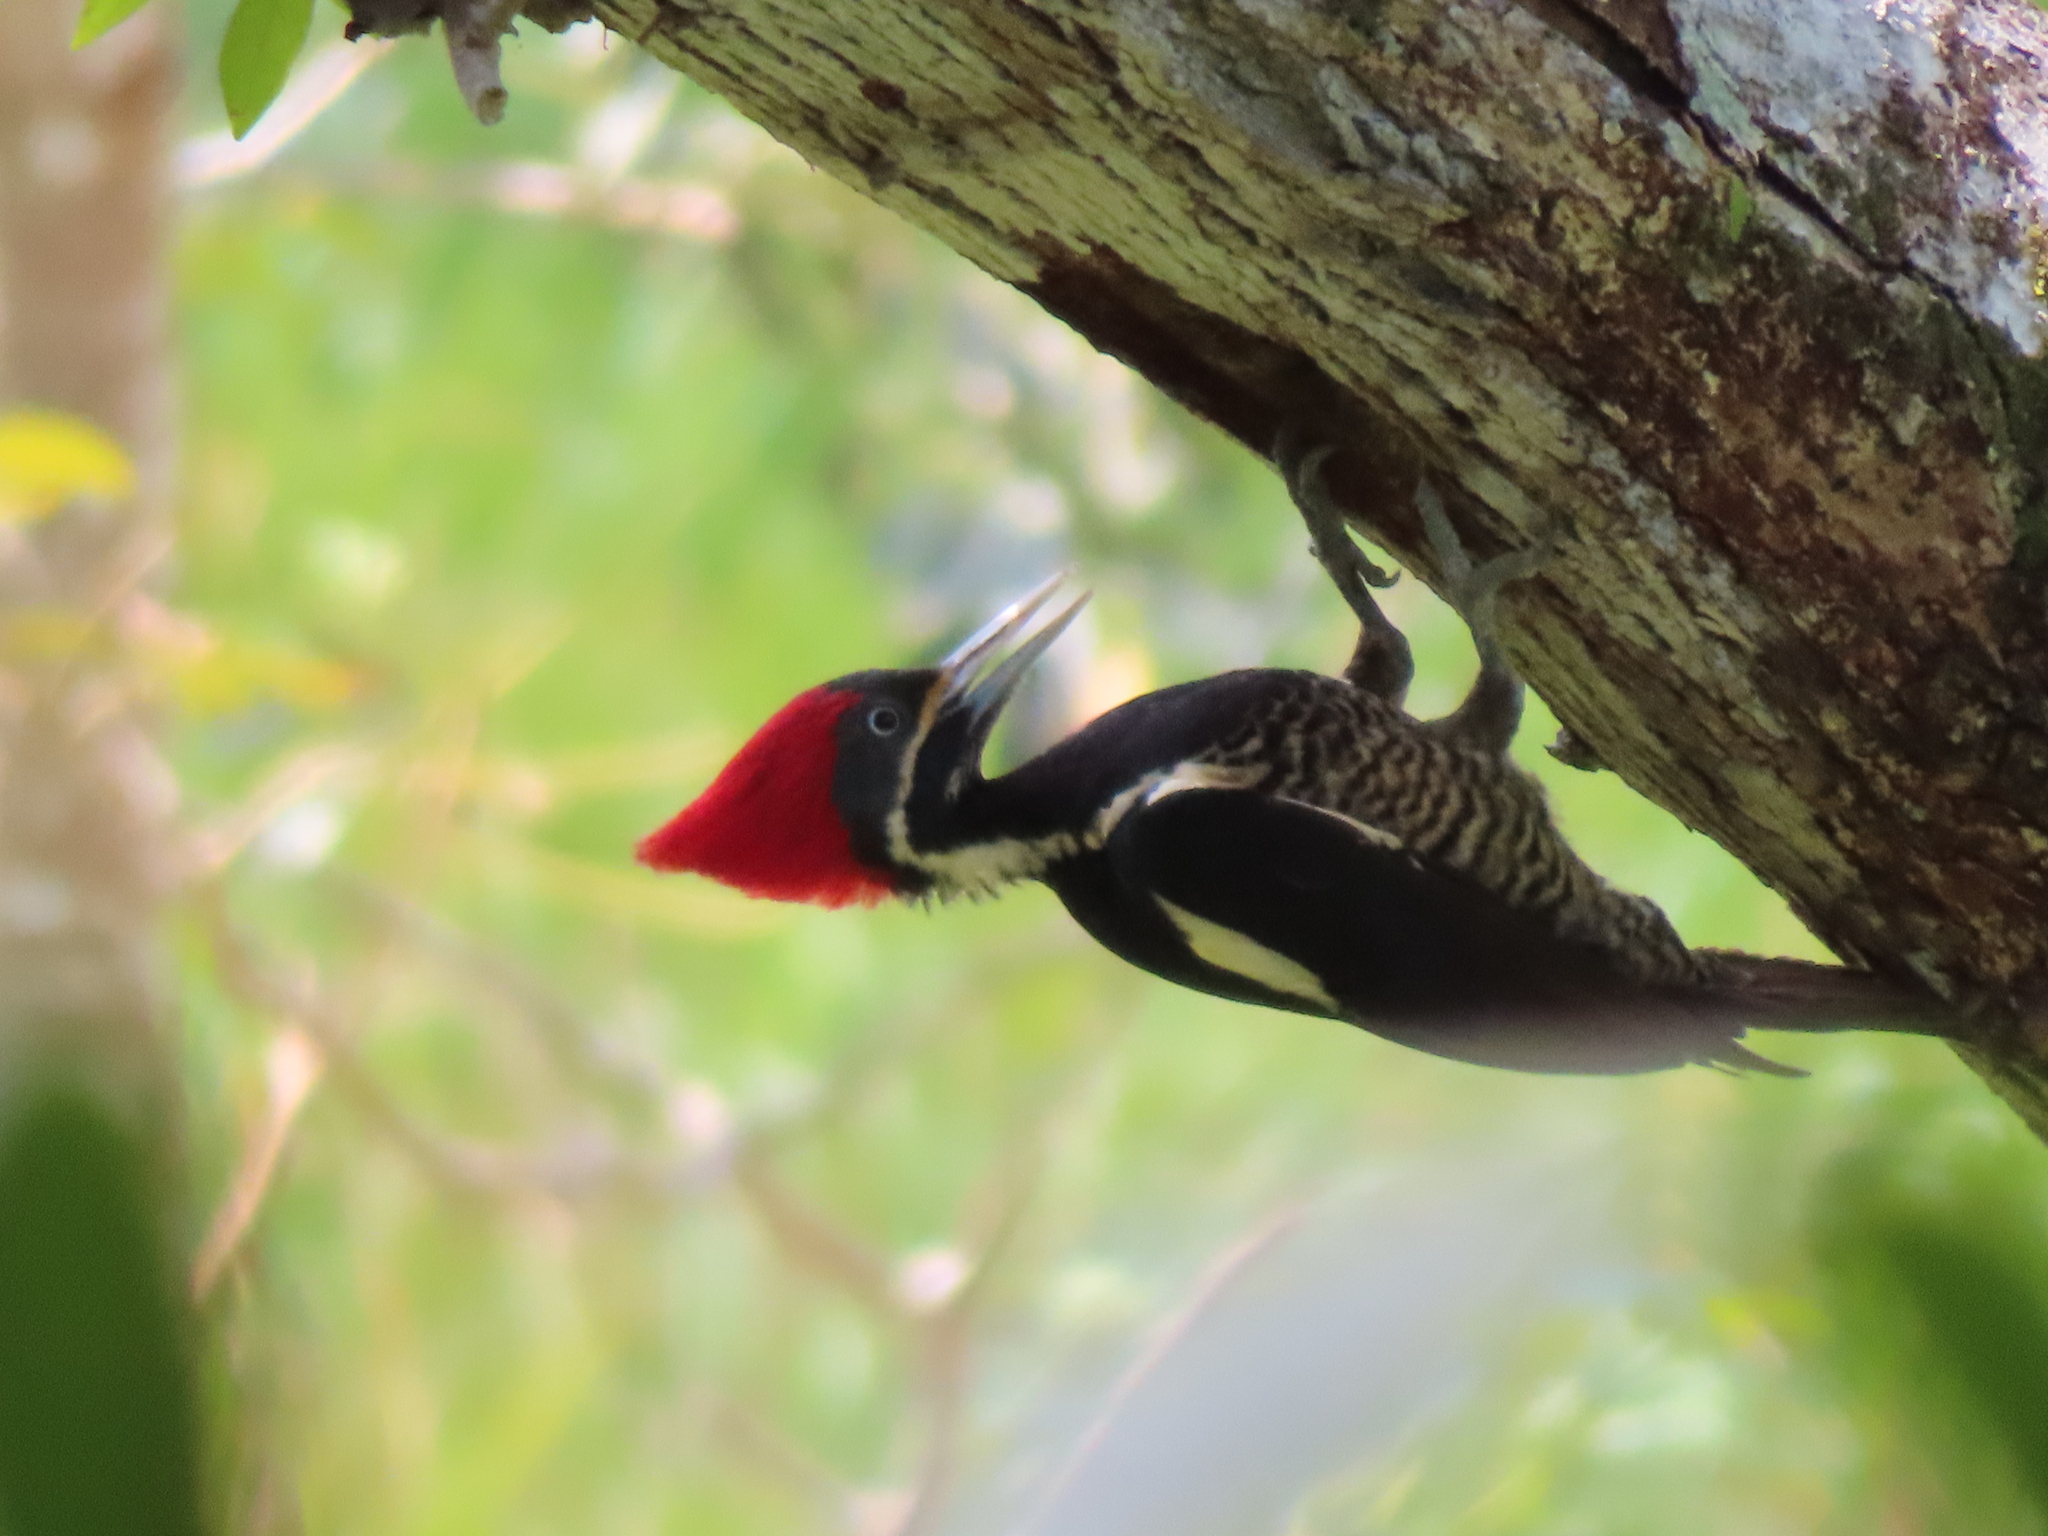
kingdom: Animalia
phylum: Chordata
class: Aves
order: Piciformes
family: Picidae
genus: Dryocopus
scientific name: Dryocopus lineatus
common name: Lineated woodpecker
